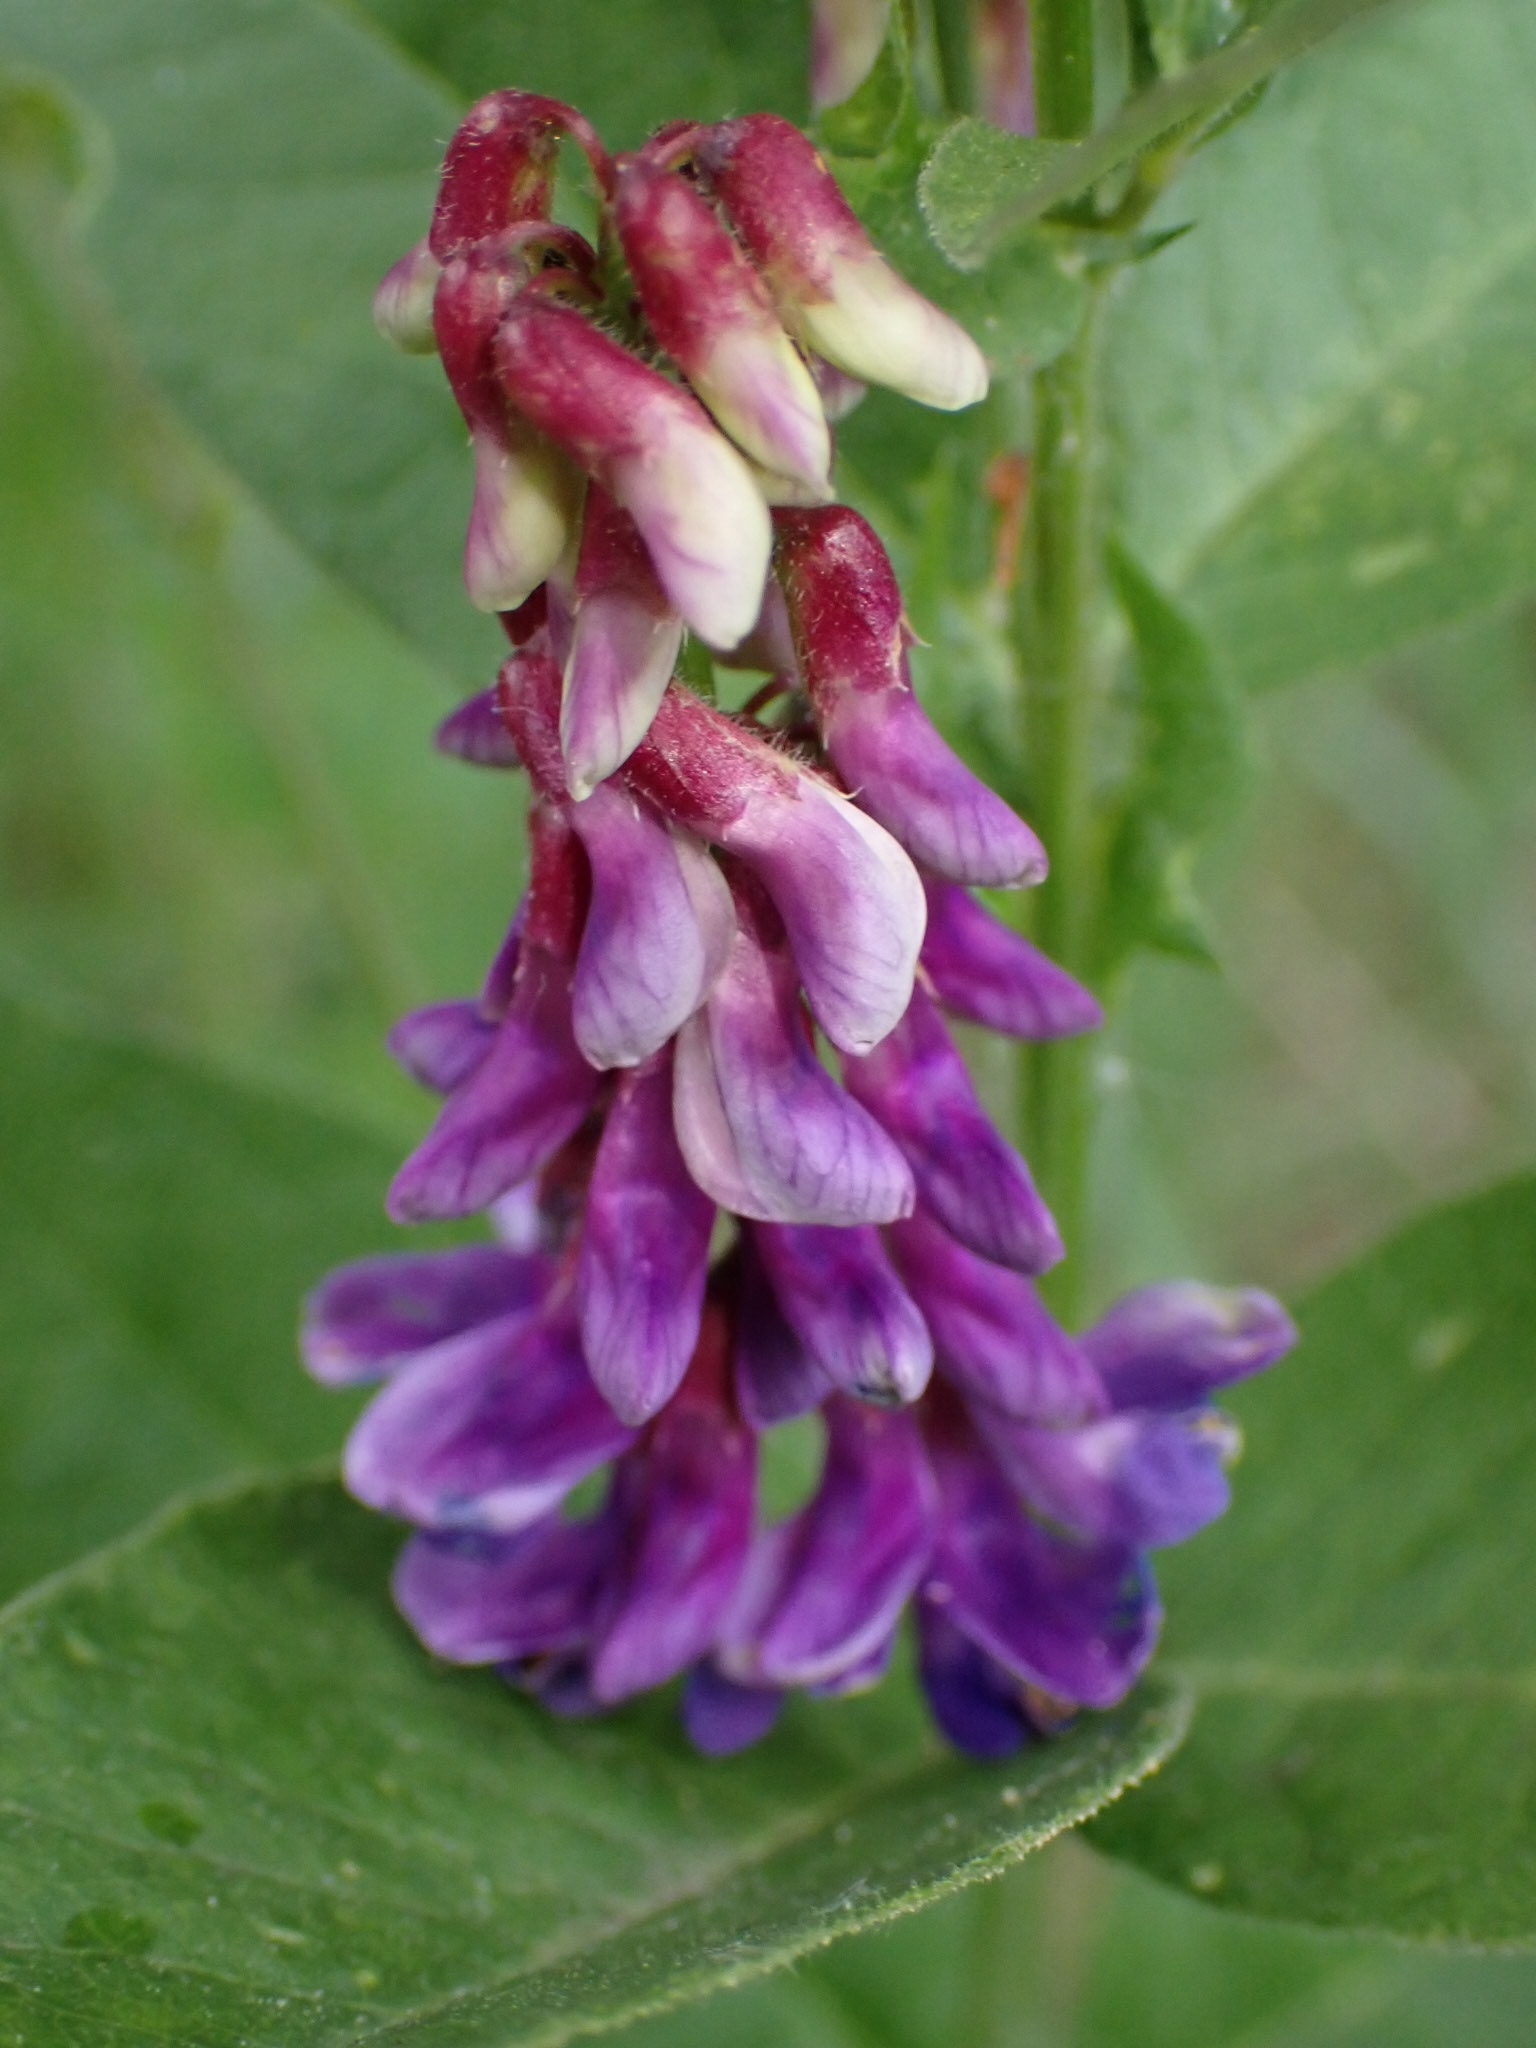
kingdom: Plantae
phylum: Tracheophyta
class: Magnoliopsida
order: Fabales
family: Fabaceae
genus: Vicia
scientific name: Vicia unijuga
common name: Two-leaf vetch
